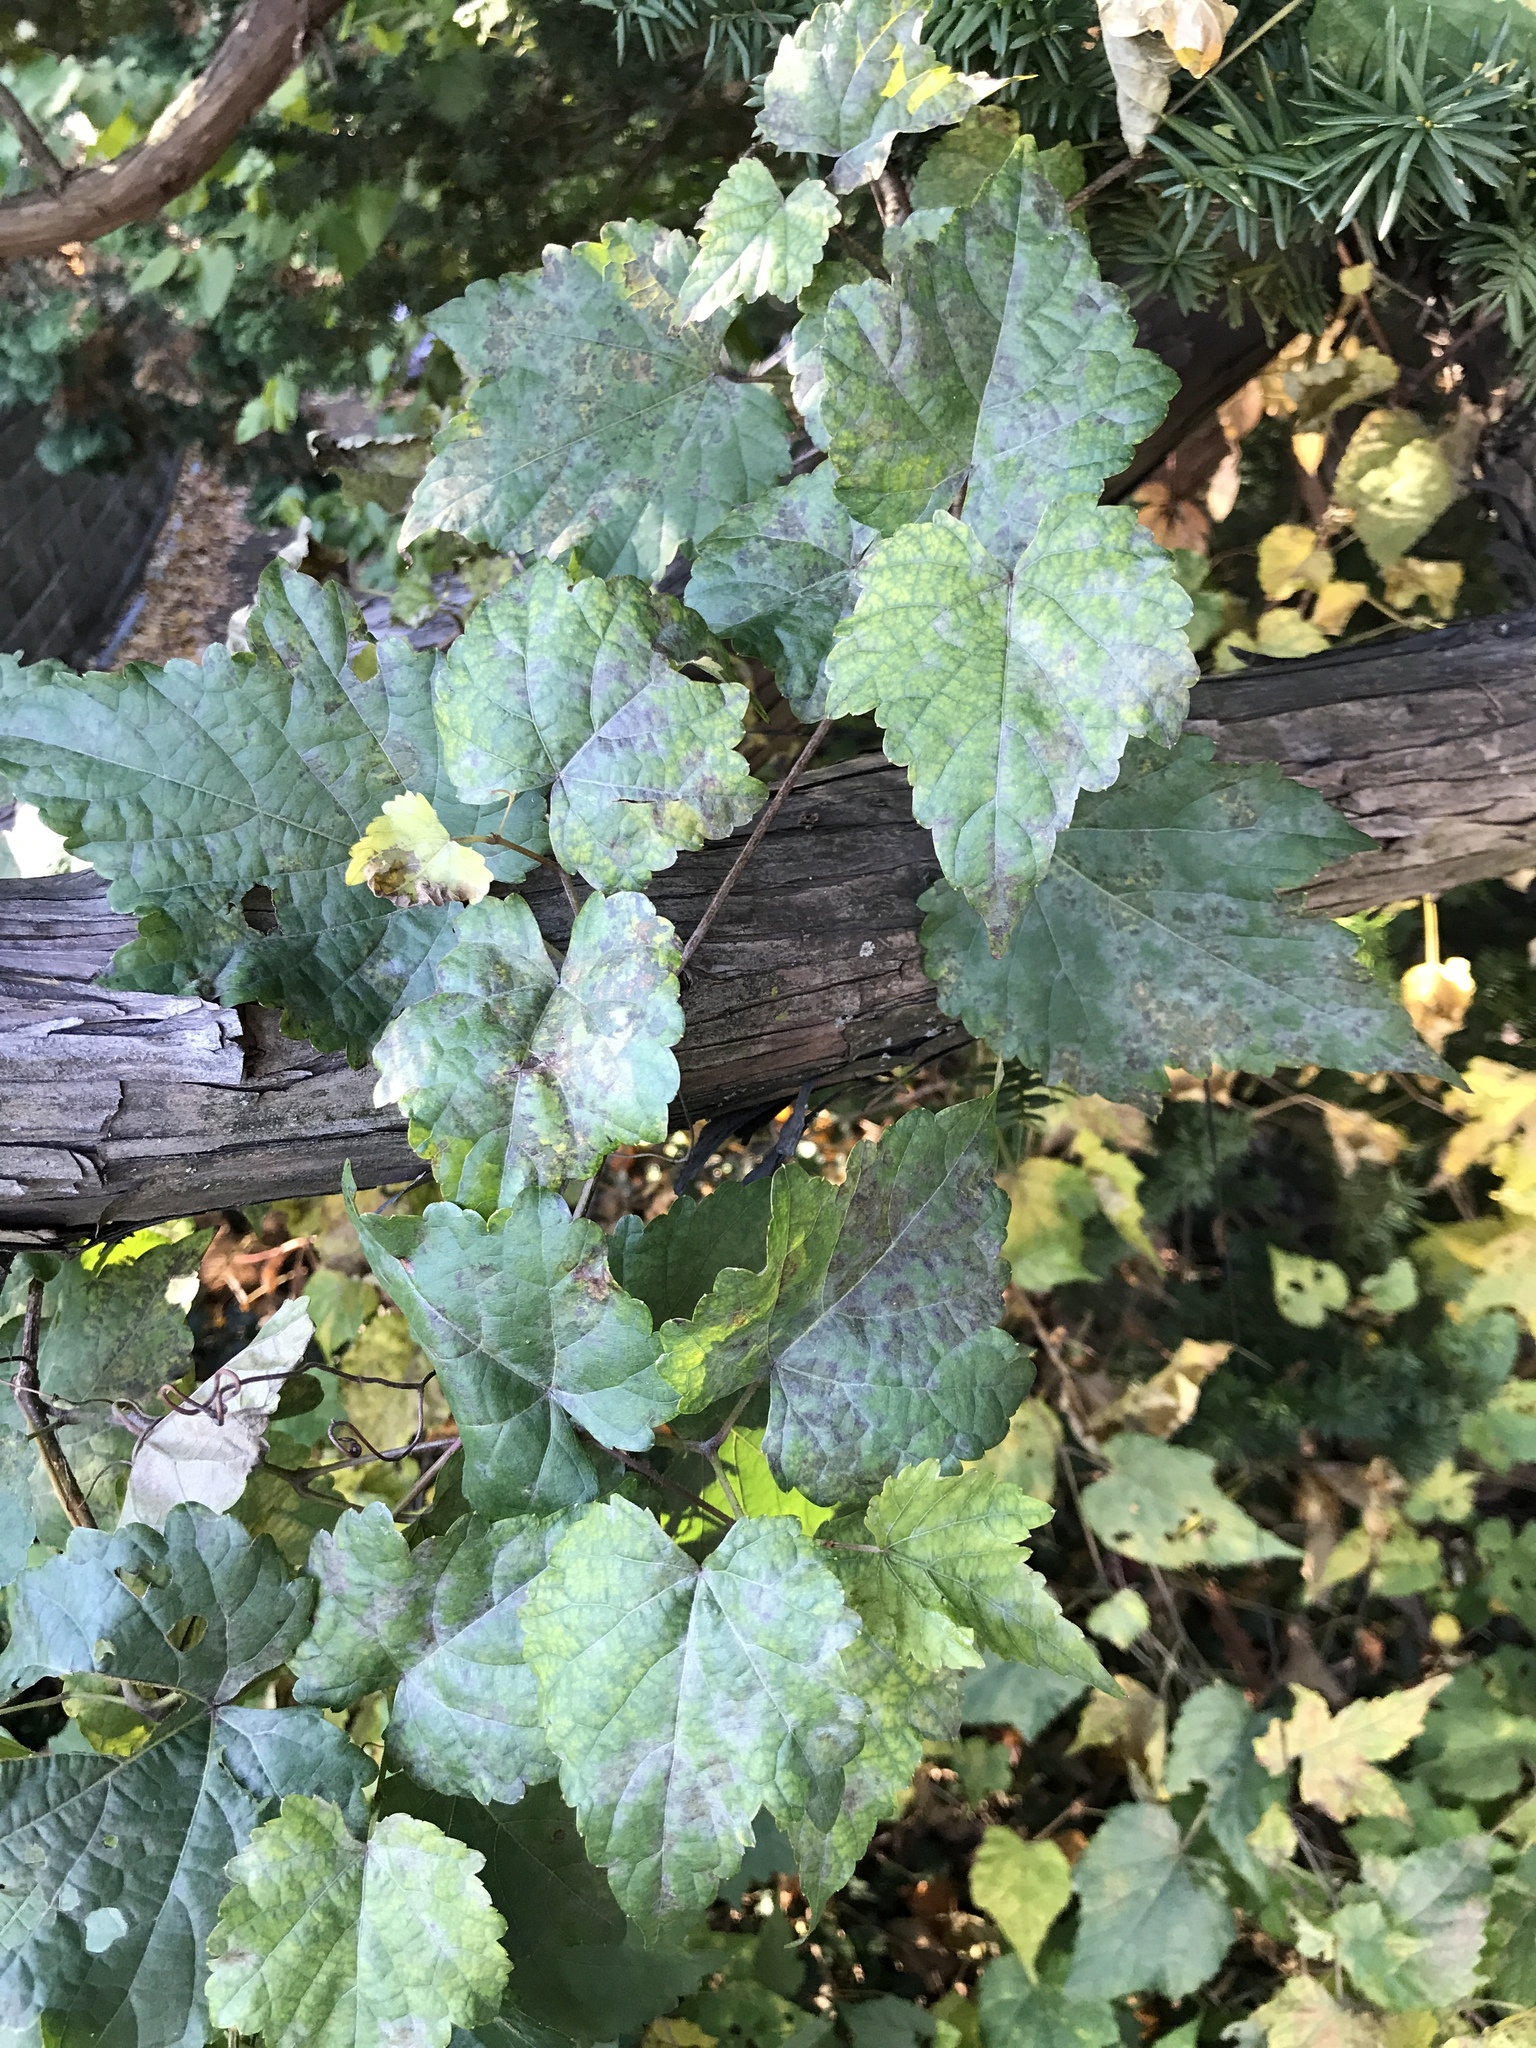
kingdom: Plantae
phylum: Tracheophyta
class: Magnoliopsida
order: Vitales
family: Vitaceae
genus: Ampelopsis
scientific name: Ampelopsis glandulosa
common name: Amur peppervine
